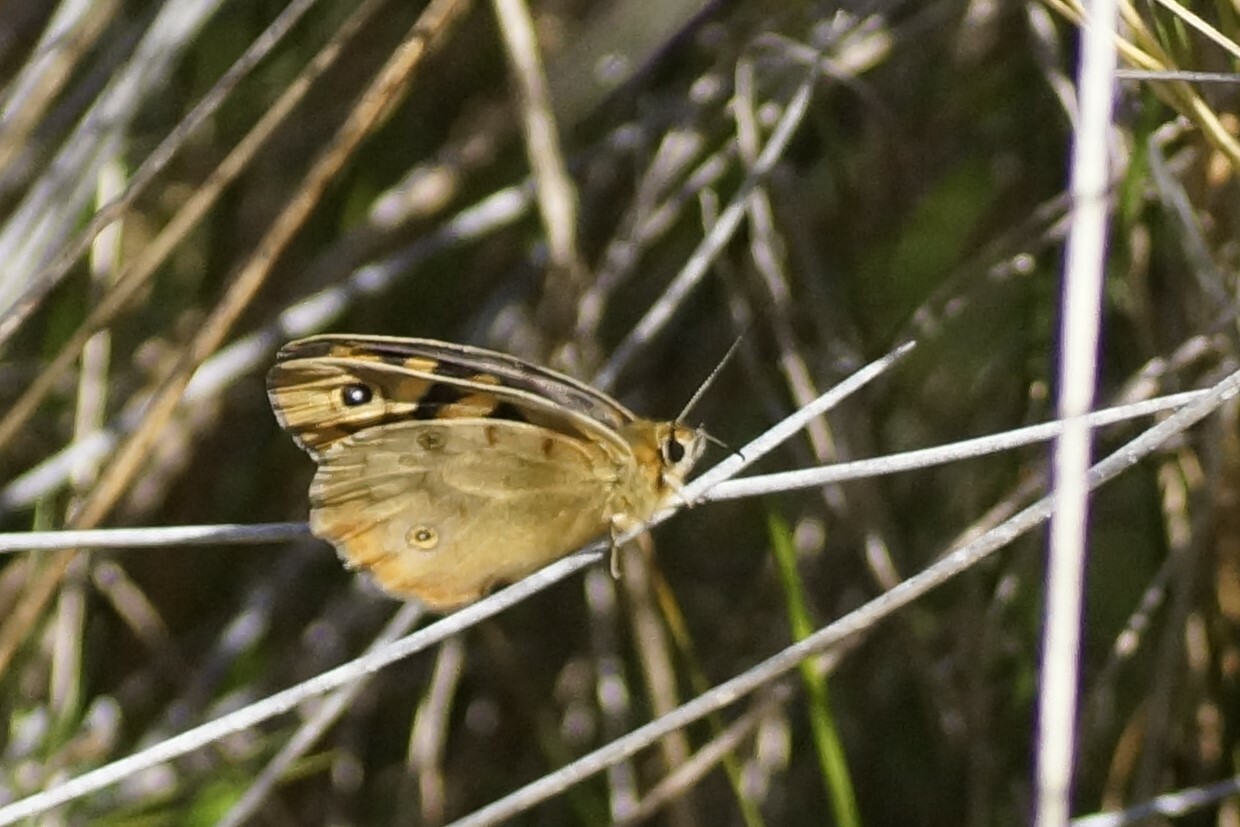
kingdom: Animalia
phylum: Arthropoda
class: Insecta
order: Lepidoptera
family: Nymphalidae
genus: Heteronympha
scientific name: Heteronympha penelope
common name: Shouldered brown
